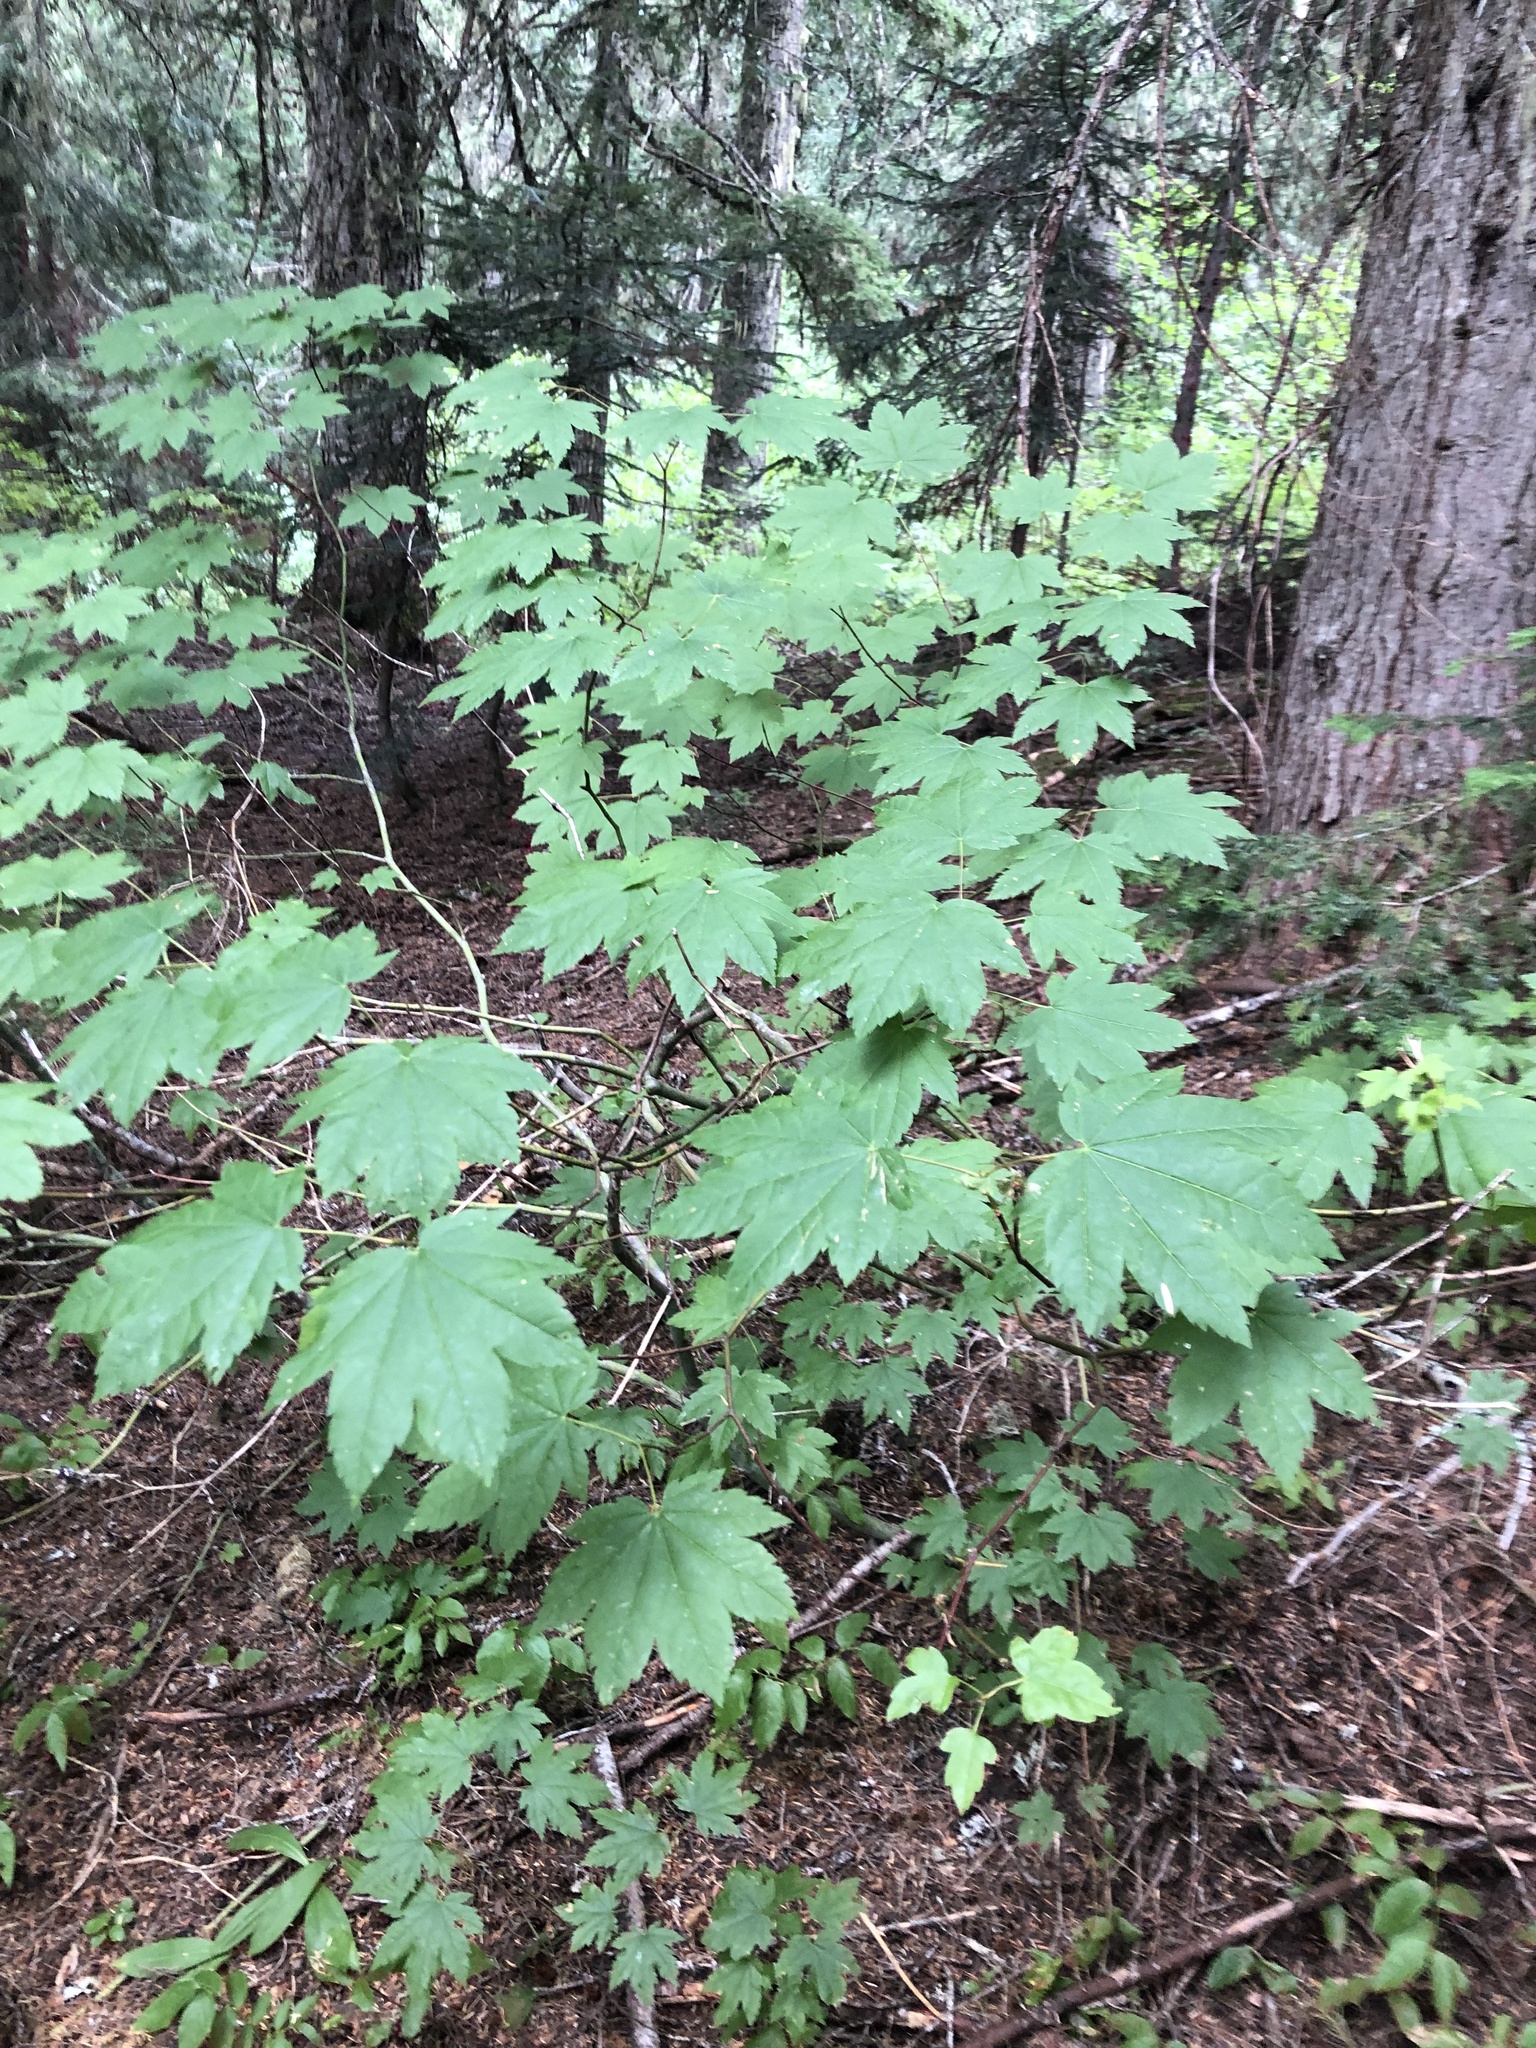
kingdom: Plantae
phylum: Tracheophyta
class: Magnoliopsida
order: Sapindales
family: Sapindaceae
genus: Acer
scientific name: Acer circinatum
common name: Vine maple
